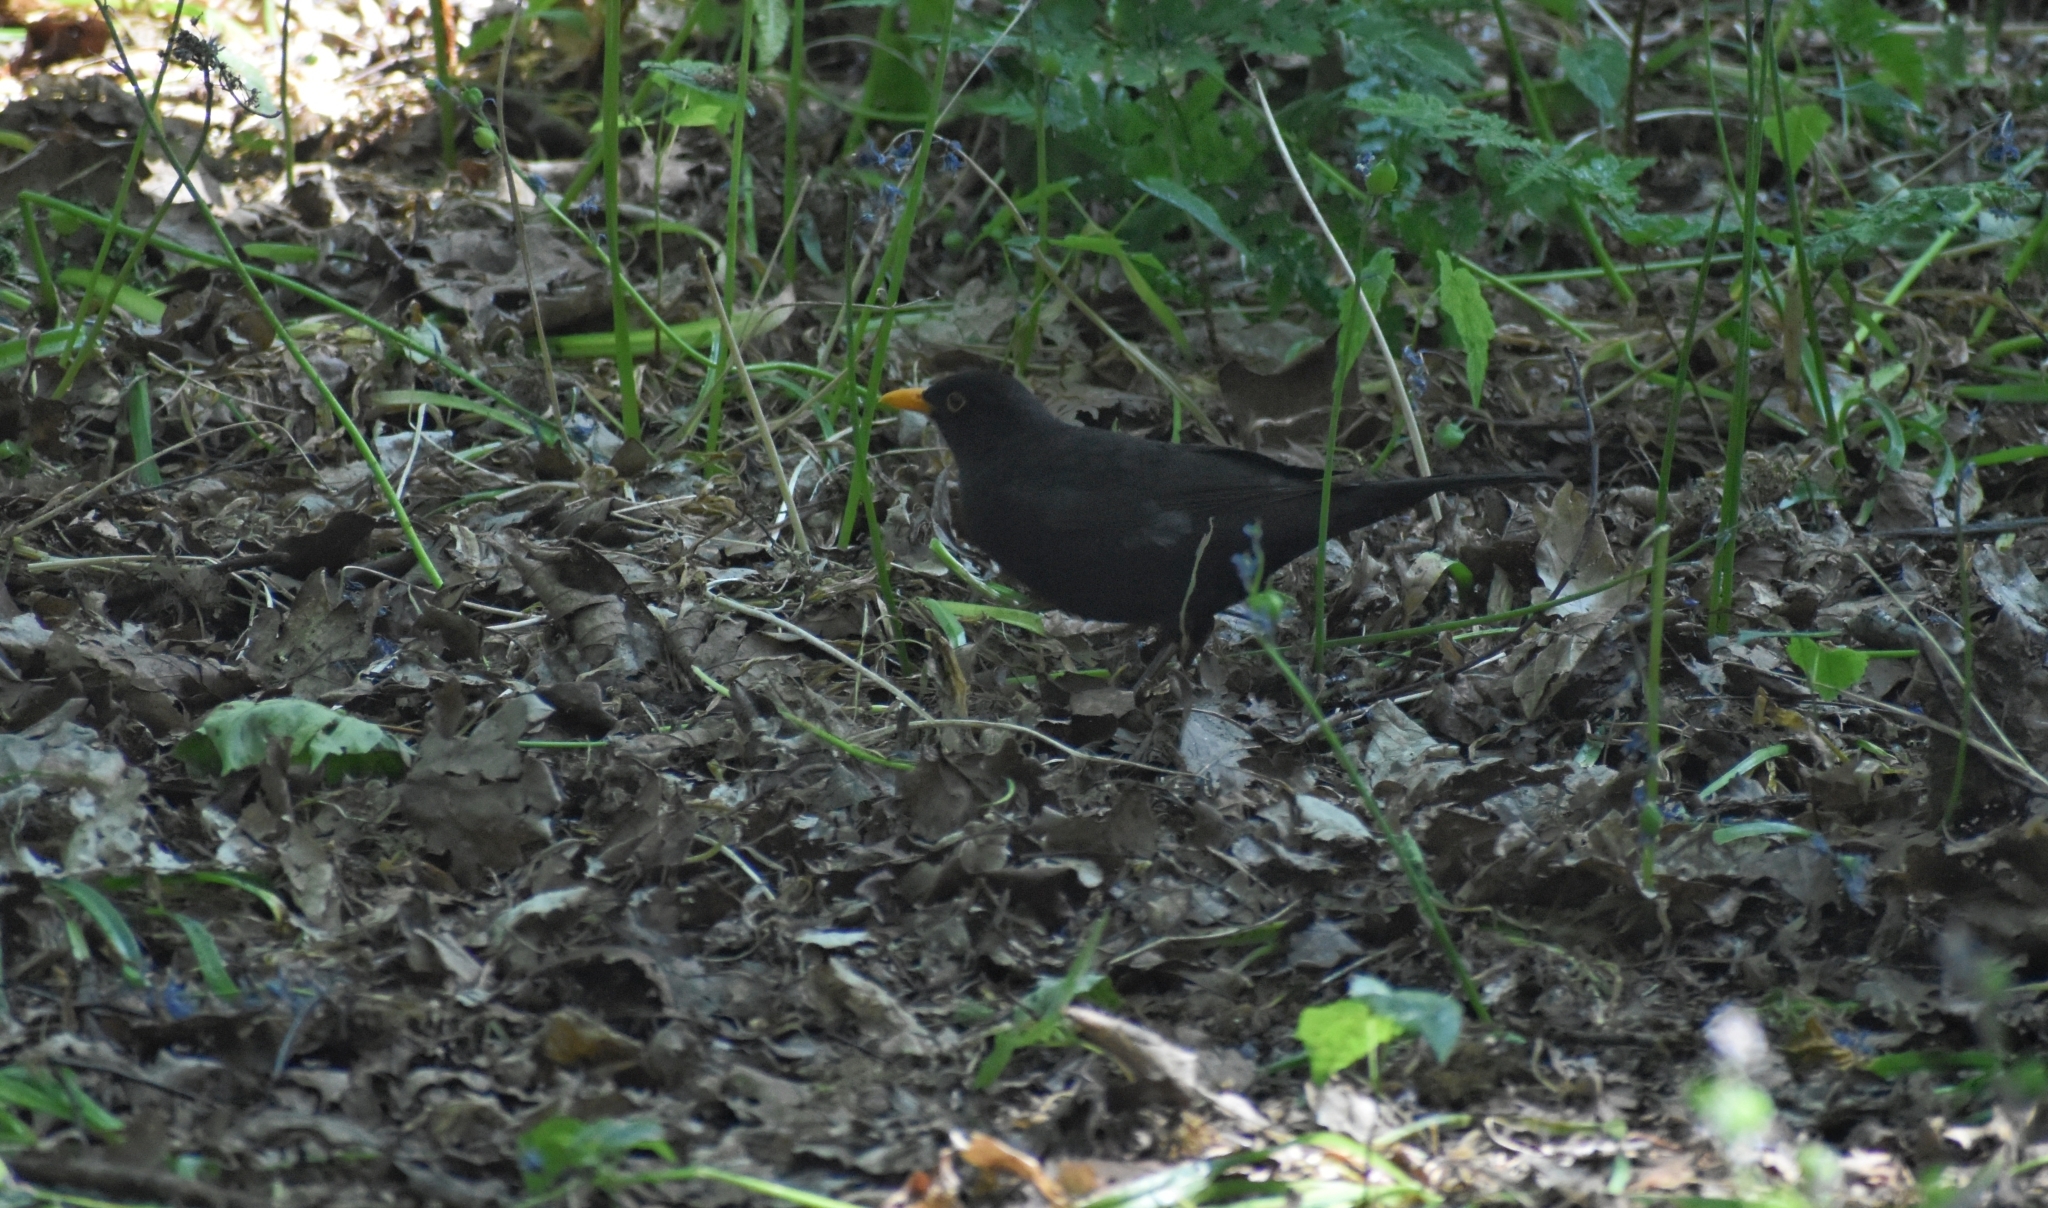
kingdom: Animalia
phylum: Chordata
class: Aves
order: Passeriformes
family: Turdidae
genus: Turdus
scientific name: Turdus merula
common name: Common blackbird
